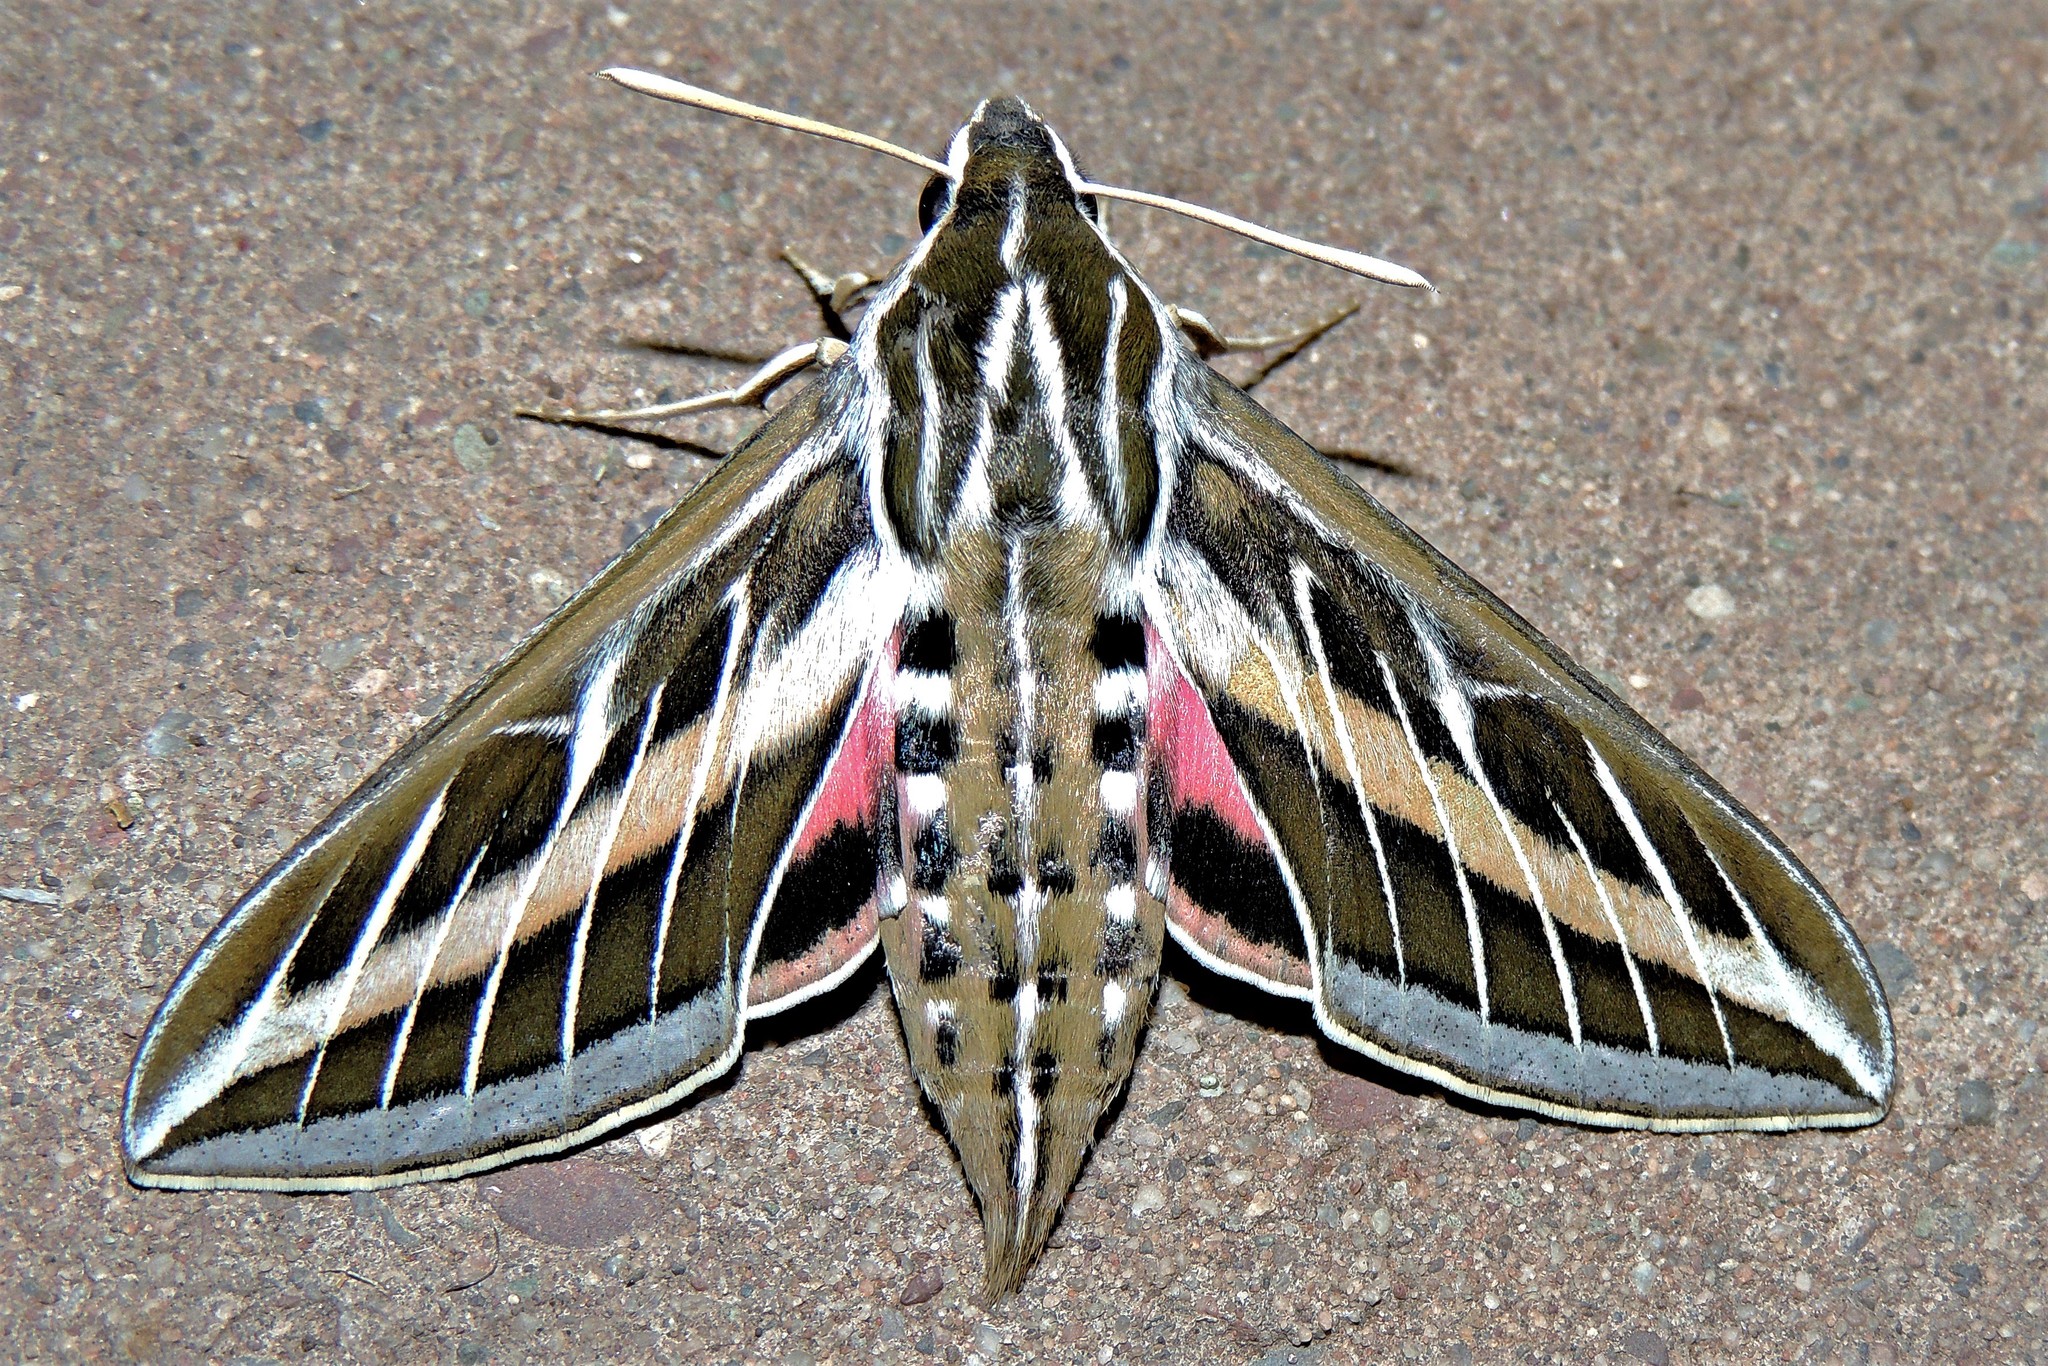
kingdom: Animalia
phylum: Arthropoda
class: Insecta
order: Lepidoptera
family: Sphingidae
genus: Hyles
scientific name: Hyles lineata
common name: White-lined sphinx
